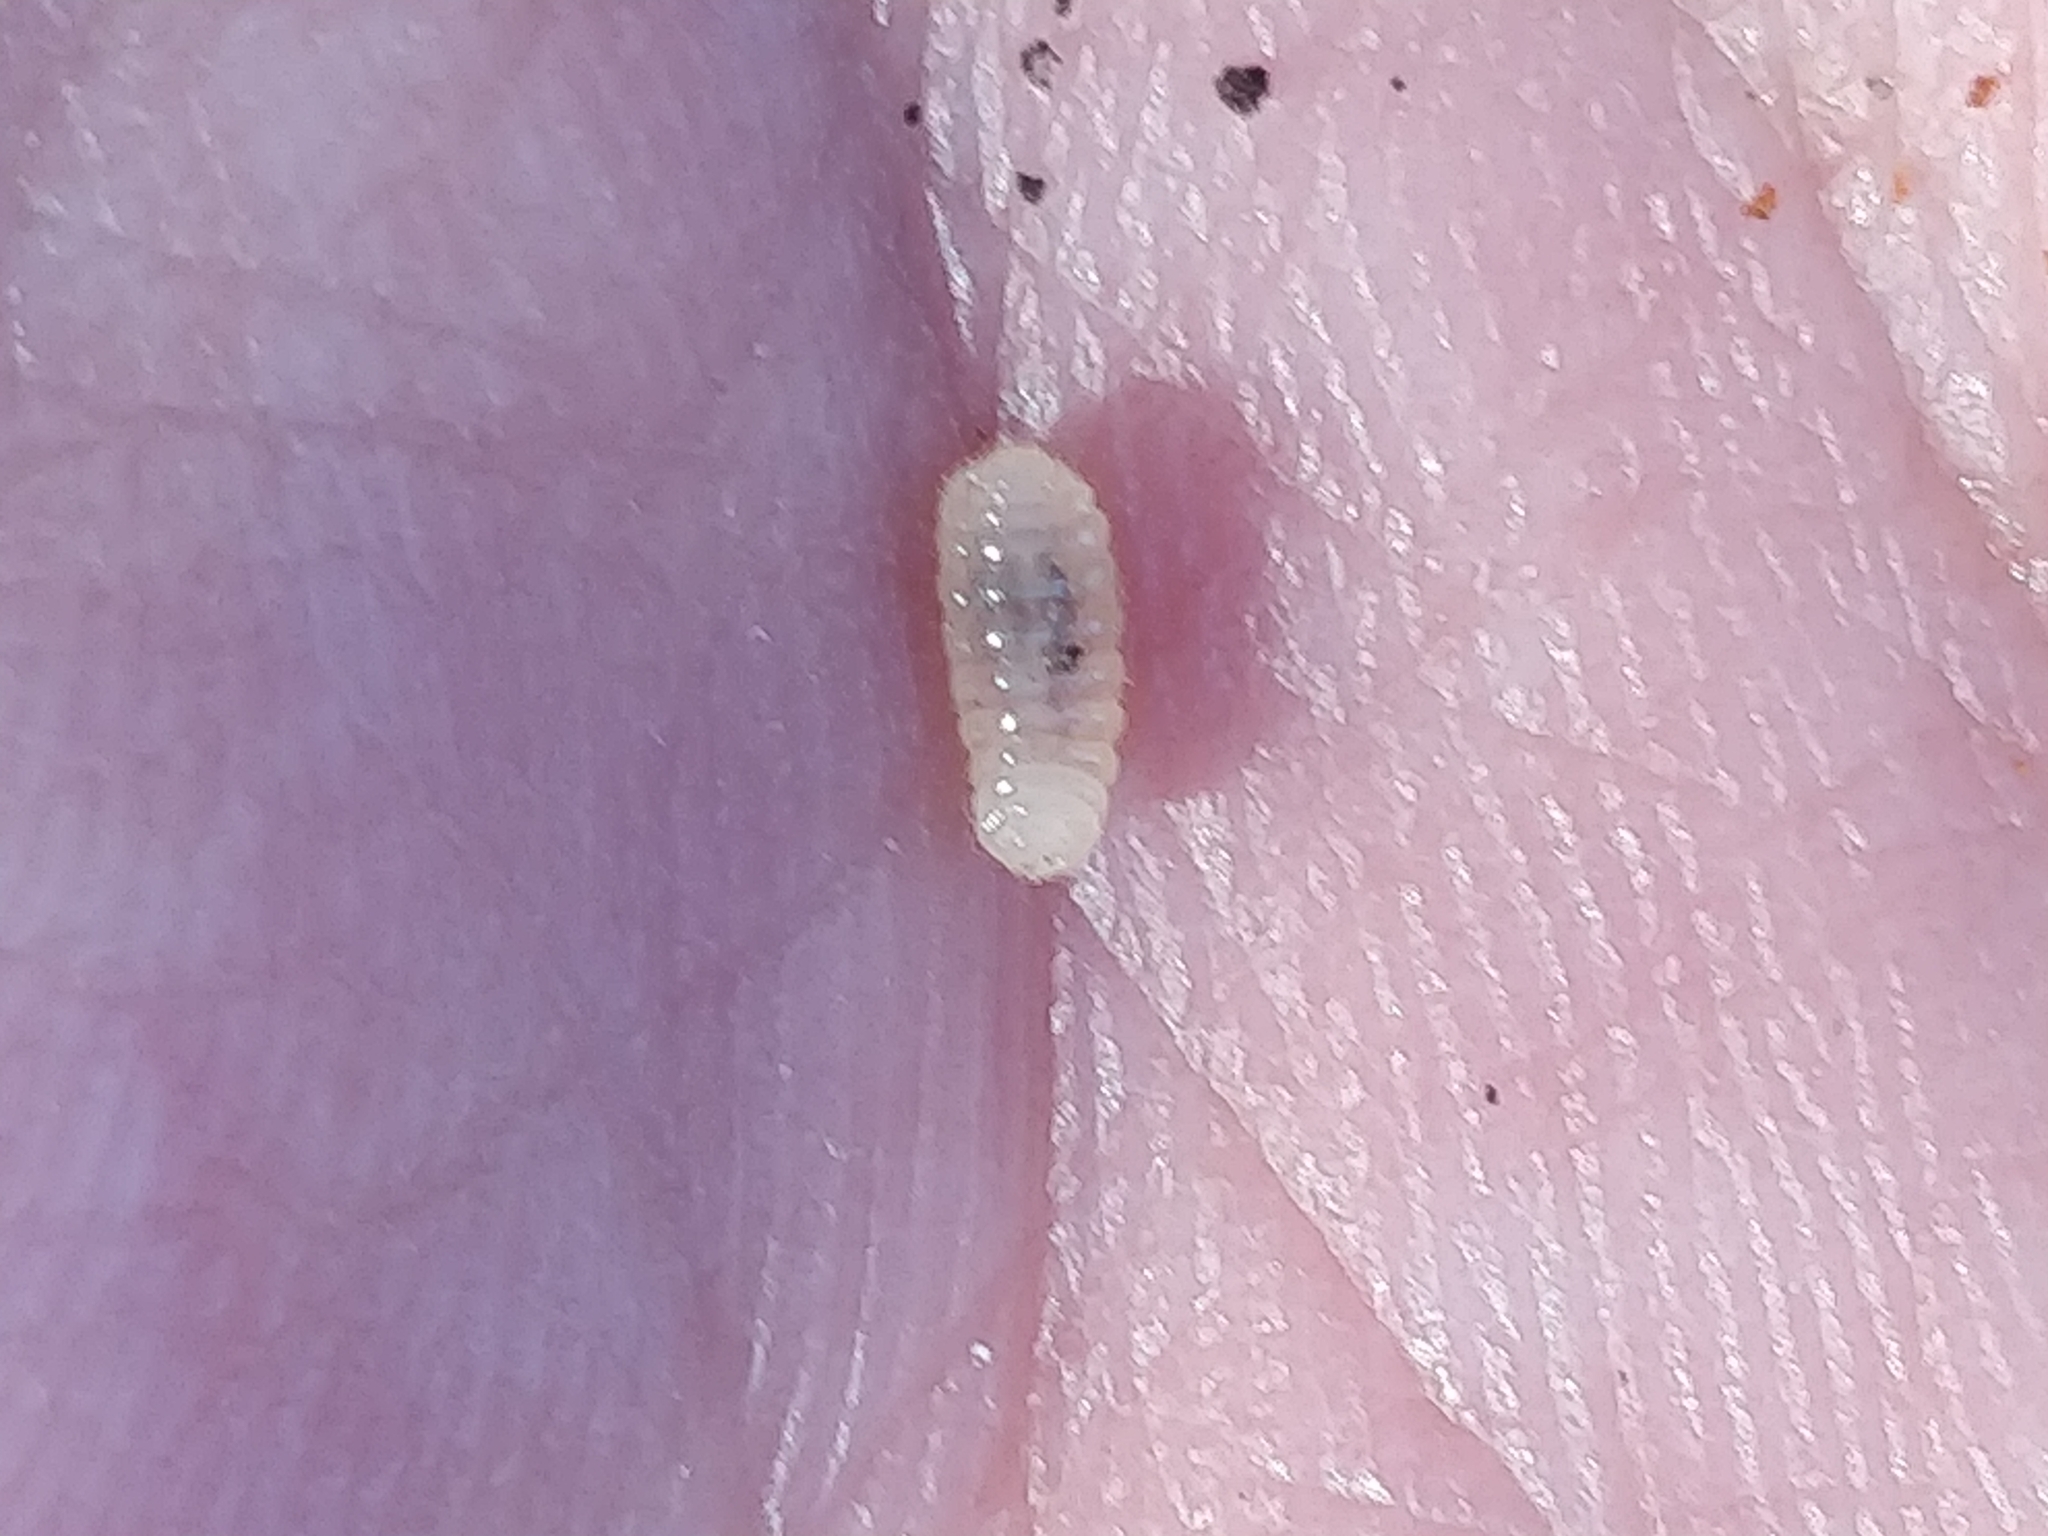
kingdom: Animalia
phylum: Arthropoda
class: Insecta
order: Hymenoptera
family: Formicidae
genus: Lasius
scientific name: Lasius
